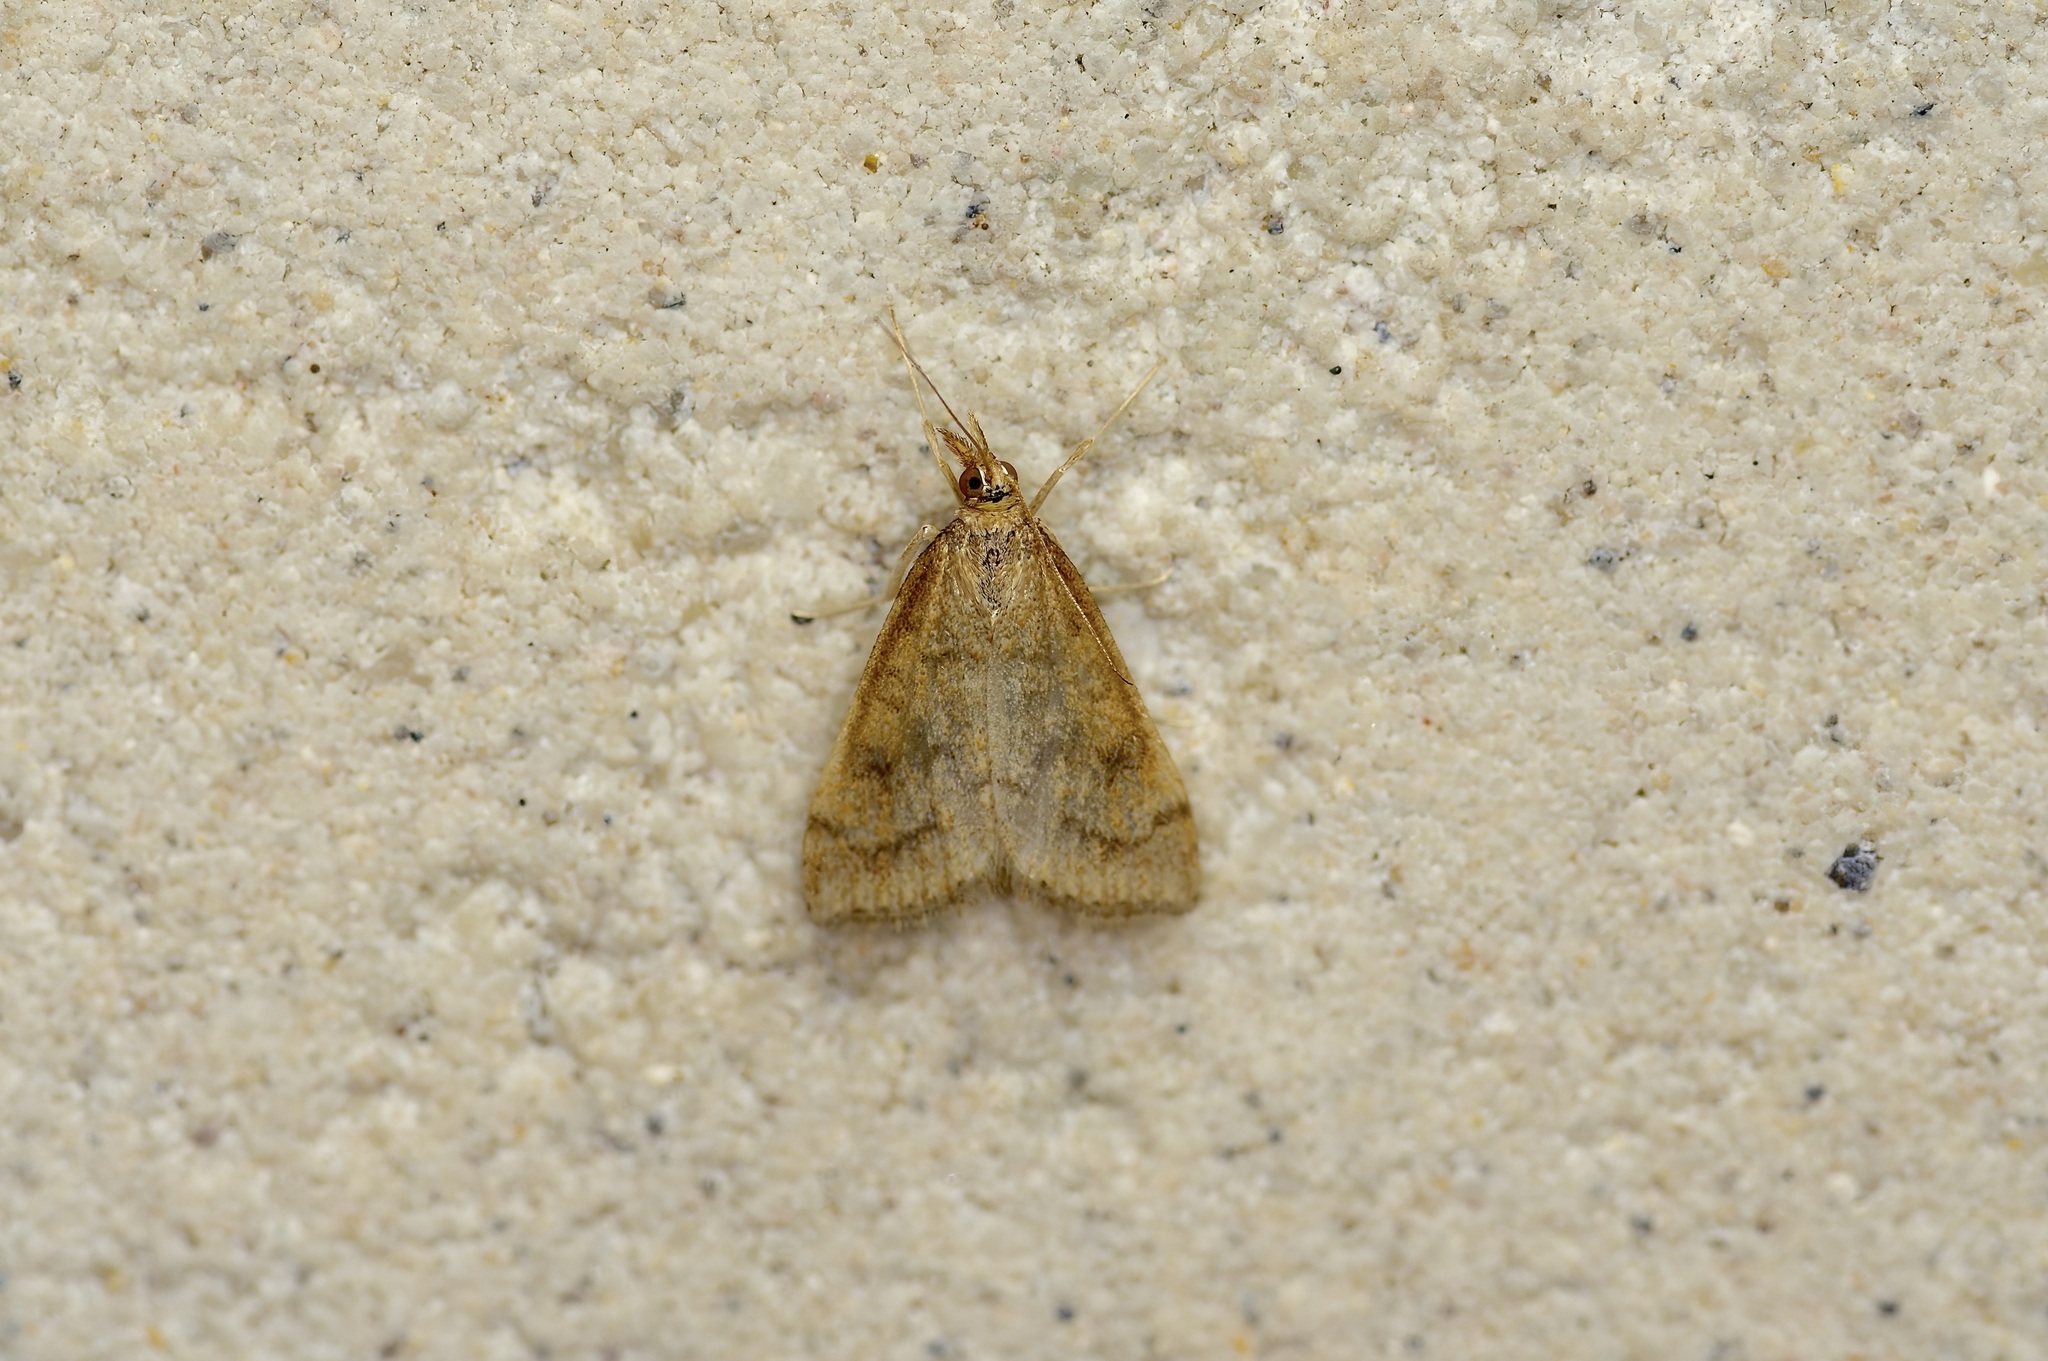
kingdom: Animalia
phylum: Arthropoda
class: Insecta
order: Lepidoptera
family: Crambidae
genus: Udea
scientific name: Udea rubigalis
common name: Celery leaftier moth
